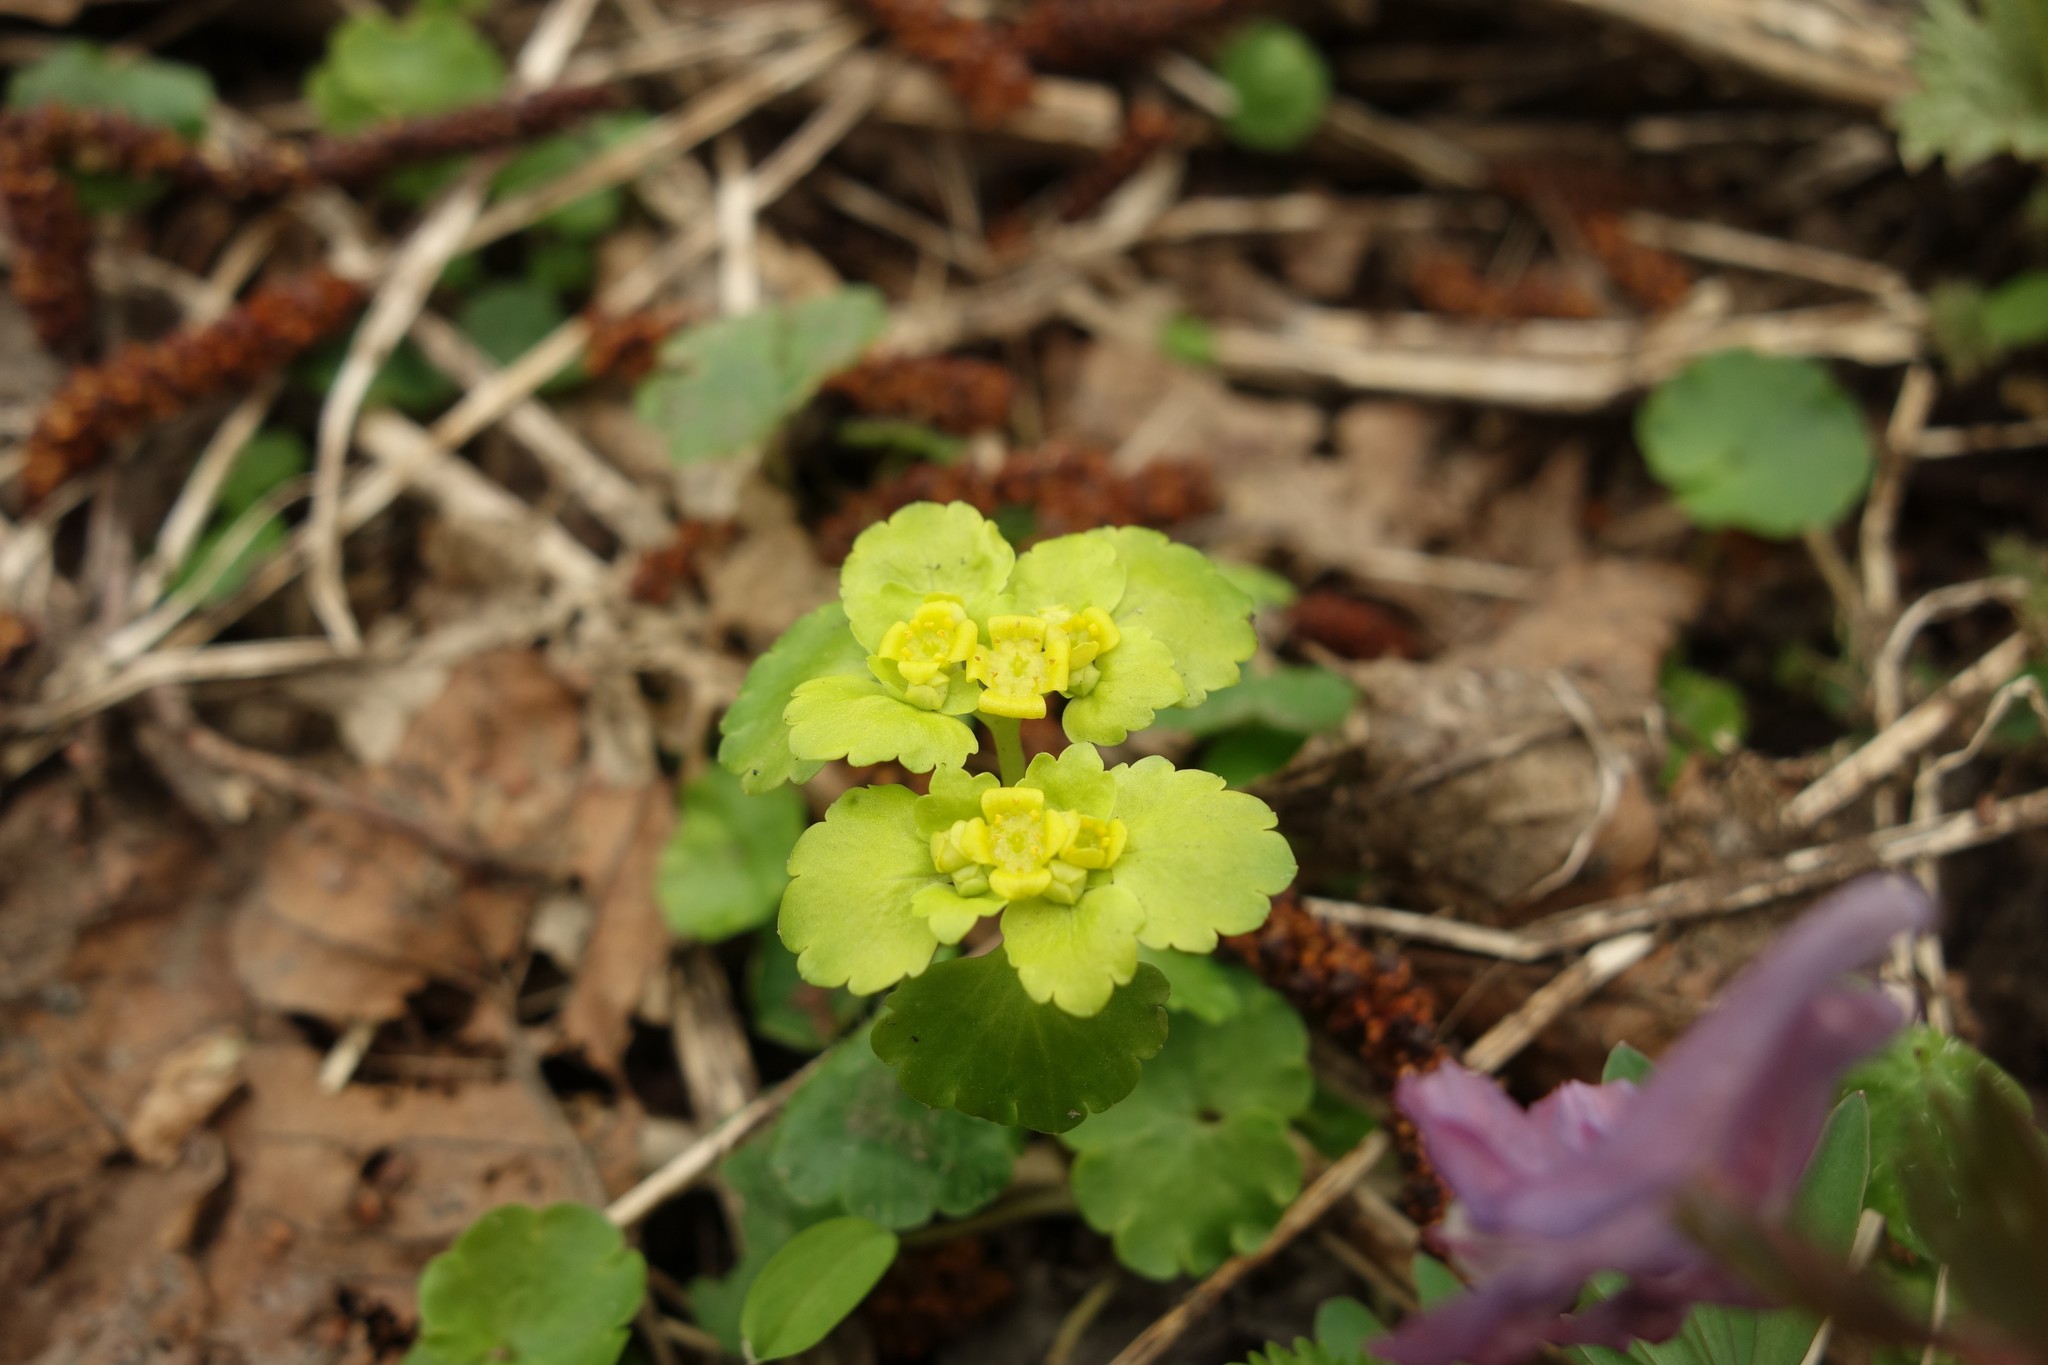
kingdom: Plantae
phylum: Tracheophyta
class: Magnoliopsida
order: Saxifragales
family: Saxifragaceae
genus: Chrysosplenium
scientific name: Chrysosplenium alternifolium
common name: Alternate-leaved golden-saxifrage
